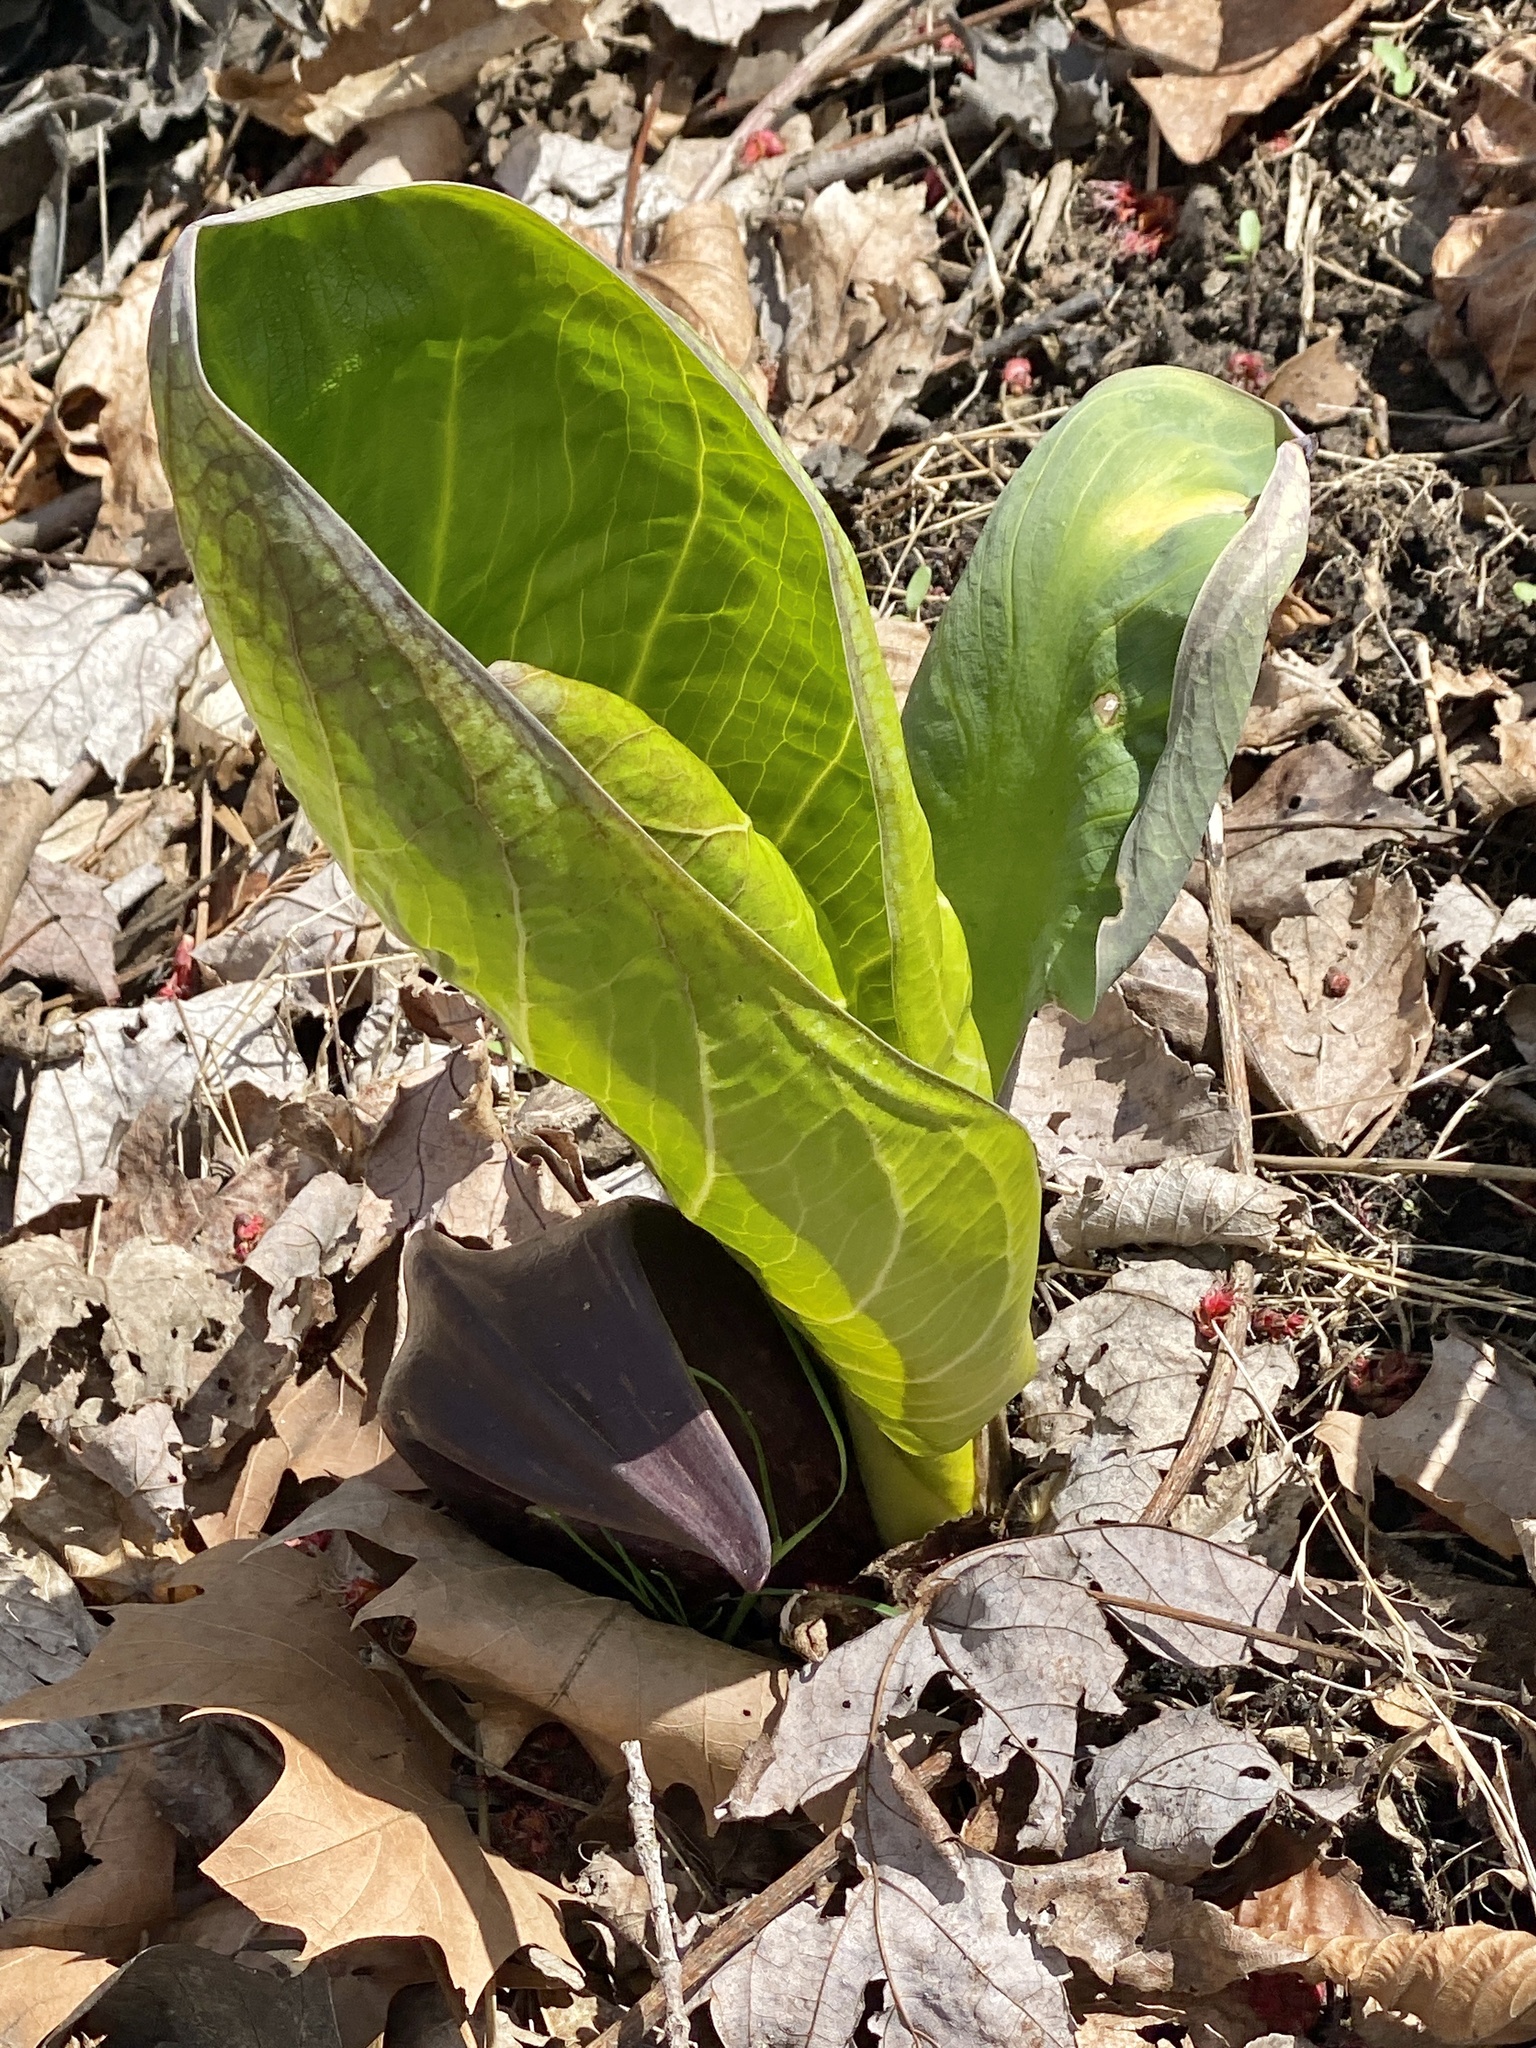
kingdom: Plantae
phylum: Tracheophyta
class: Liliopsida
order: Alismatales
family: Araceae
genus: Symplocarpus
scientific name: Symplocarpus foetidus
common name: Eastern skunk cabbage
